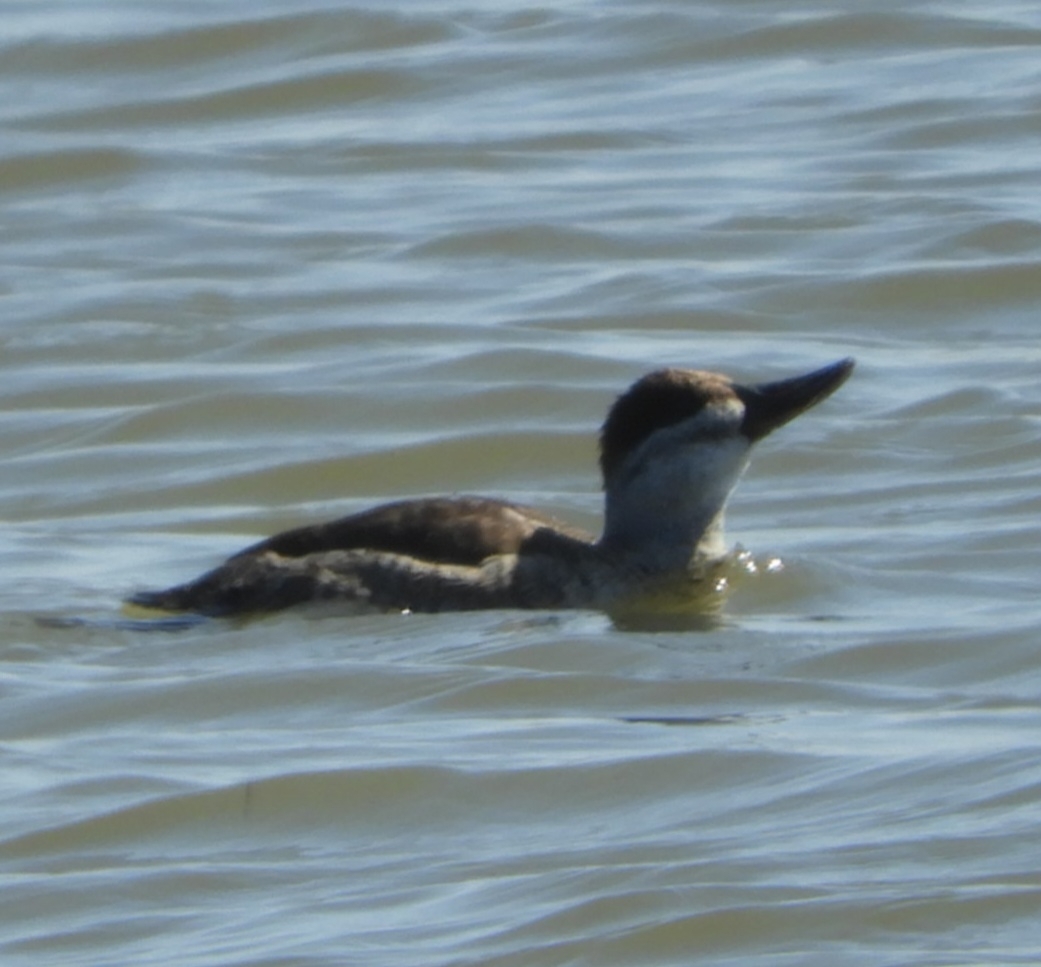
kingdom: Animalia
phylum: Chordata
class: Aves
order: Anseriformes
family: Anatidae
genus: Oxyura
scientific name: Oxyura jamaicensis
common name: Ruddy duck
